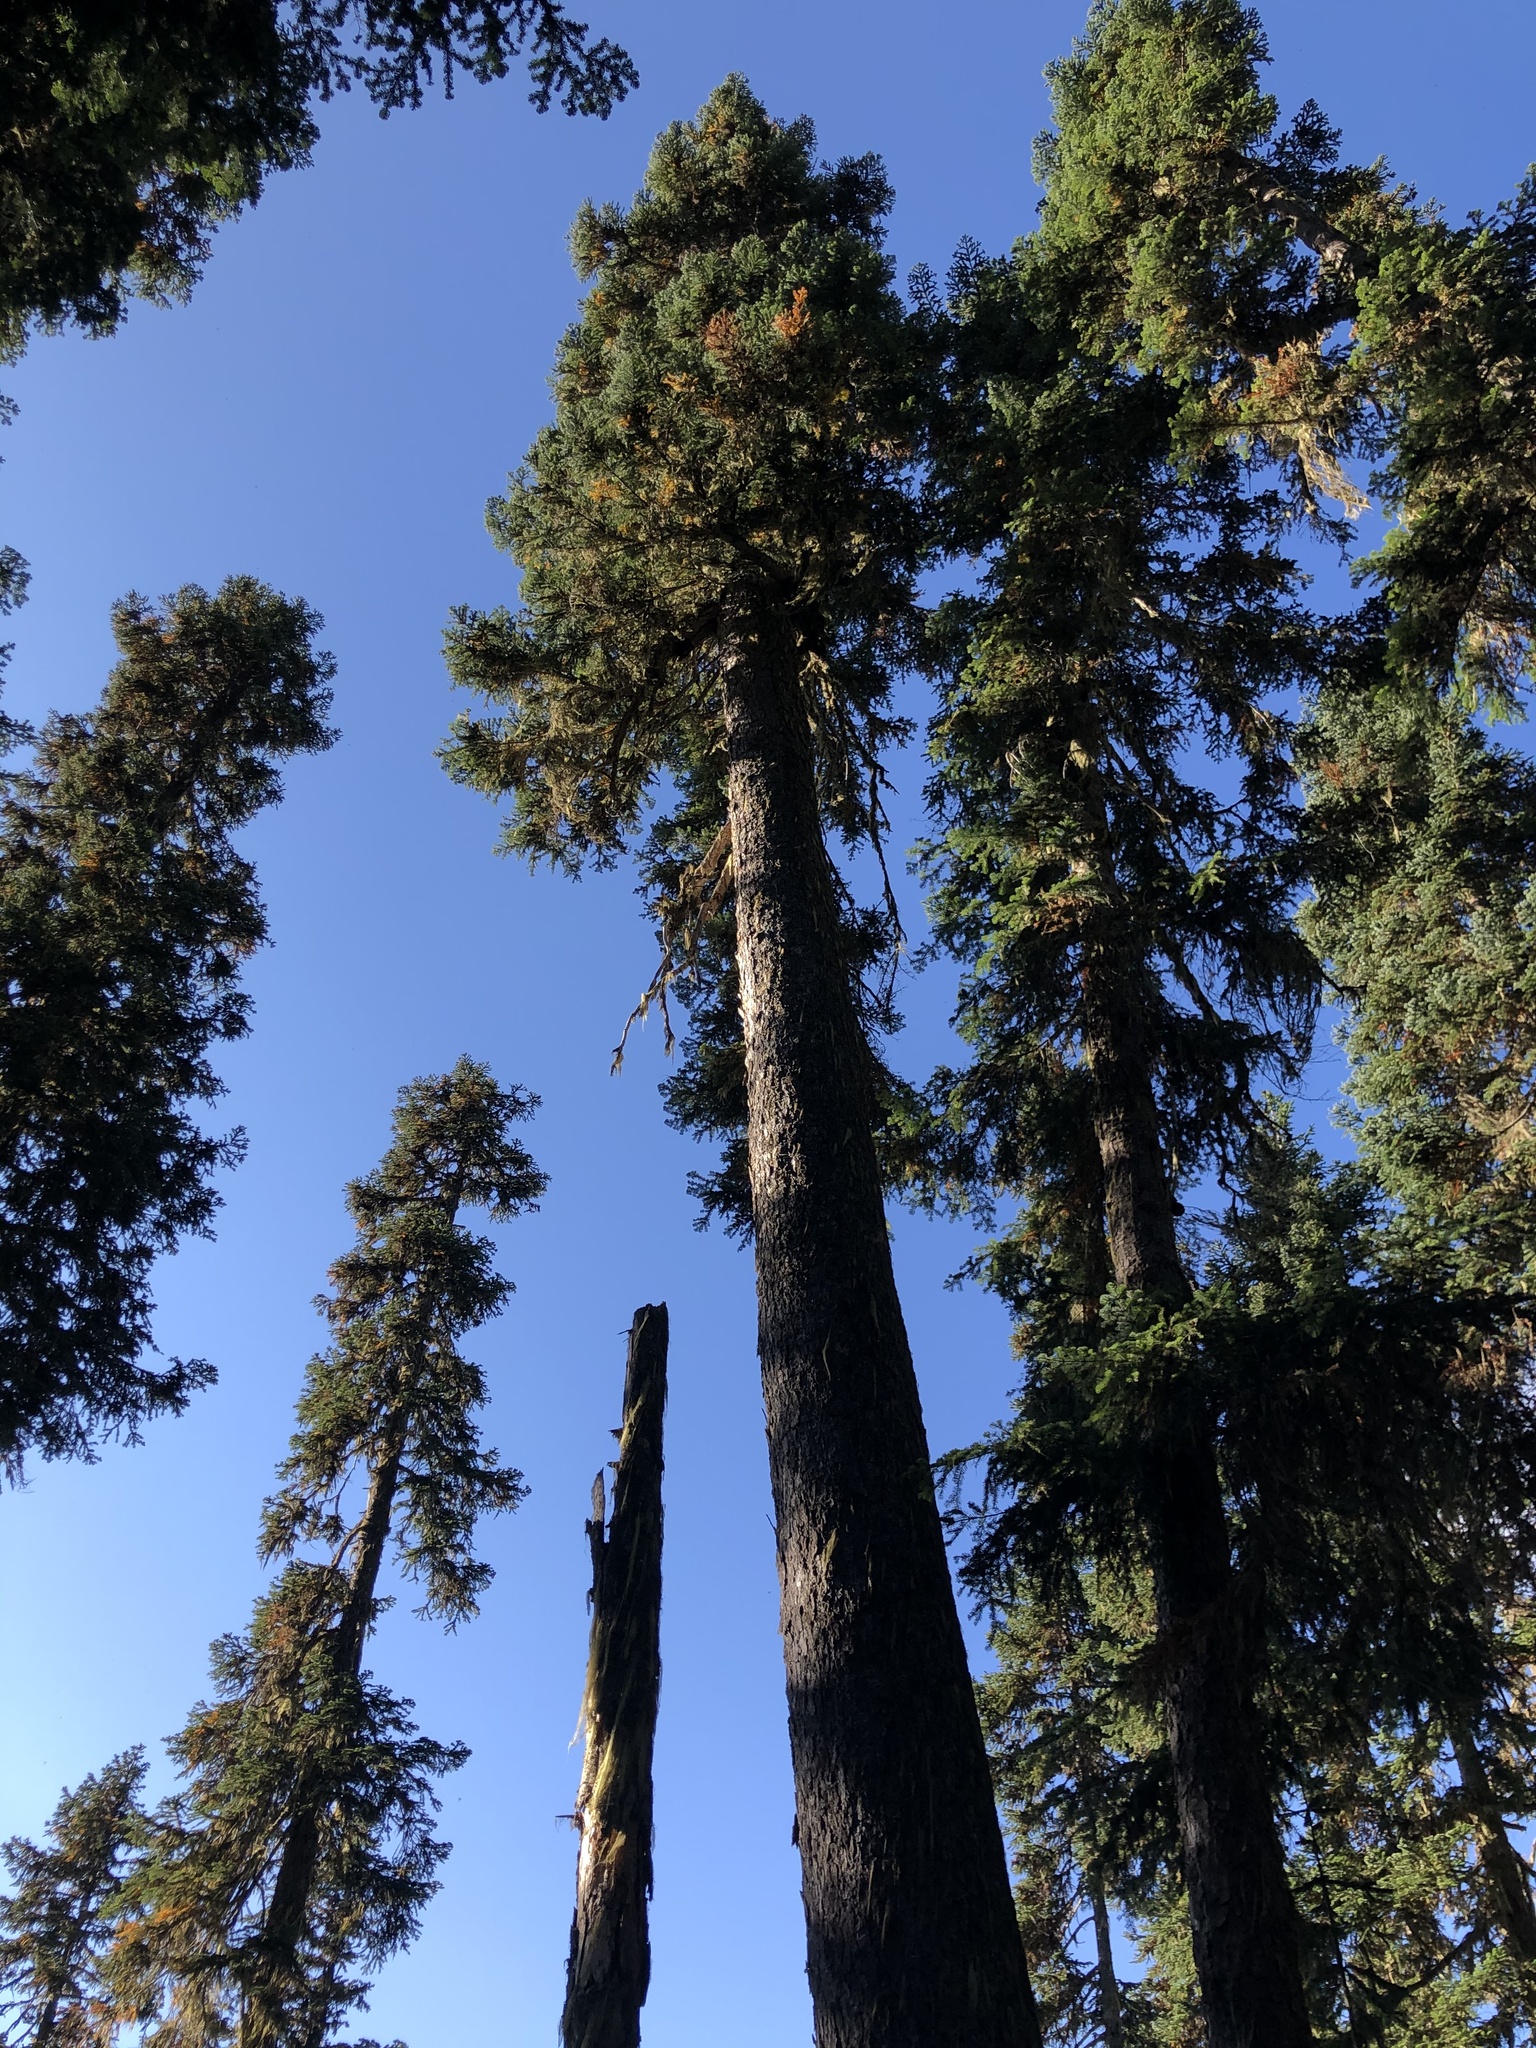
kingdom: Plantae
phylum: Tracheophyta
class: Pinopsida
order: Pinales
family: Pinaceae
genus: Abies
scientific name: Abies amabilis
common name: Pacific silver fir
